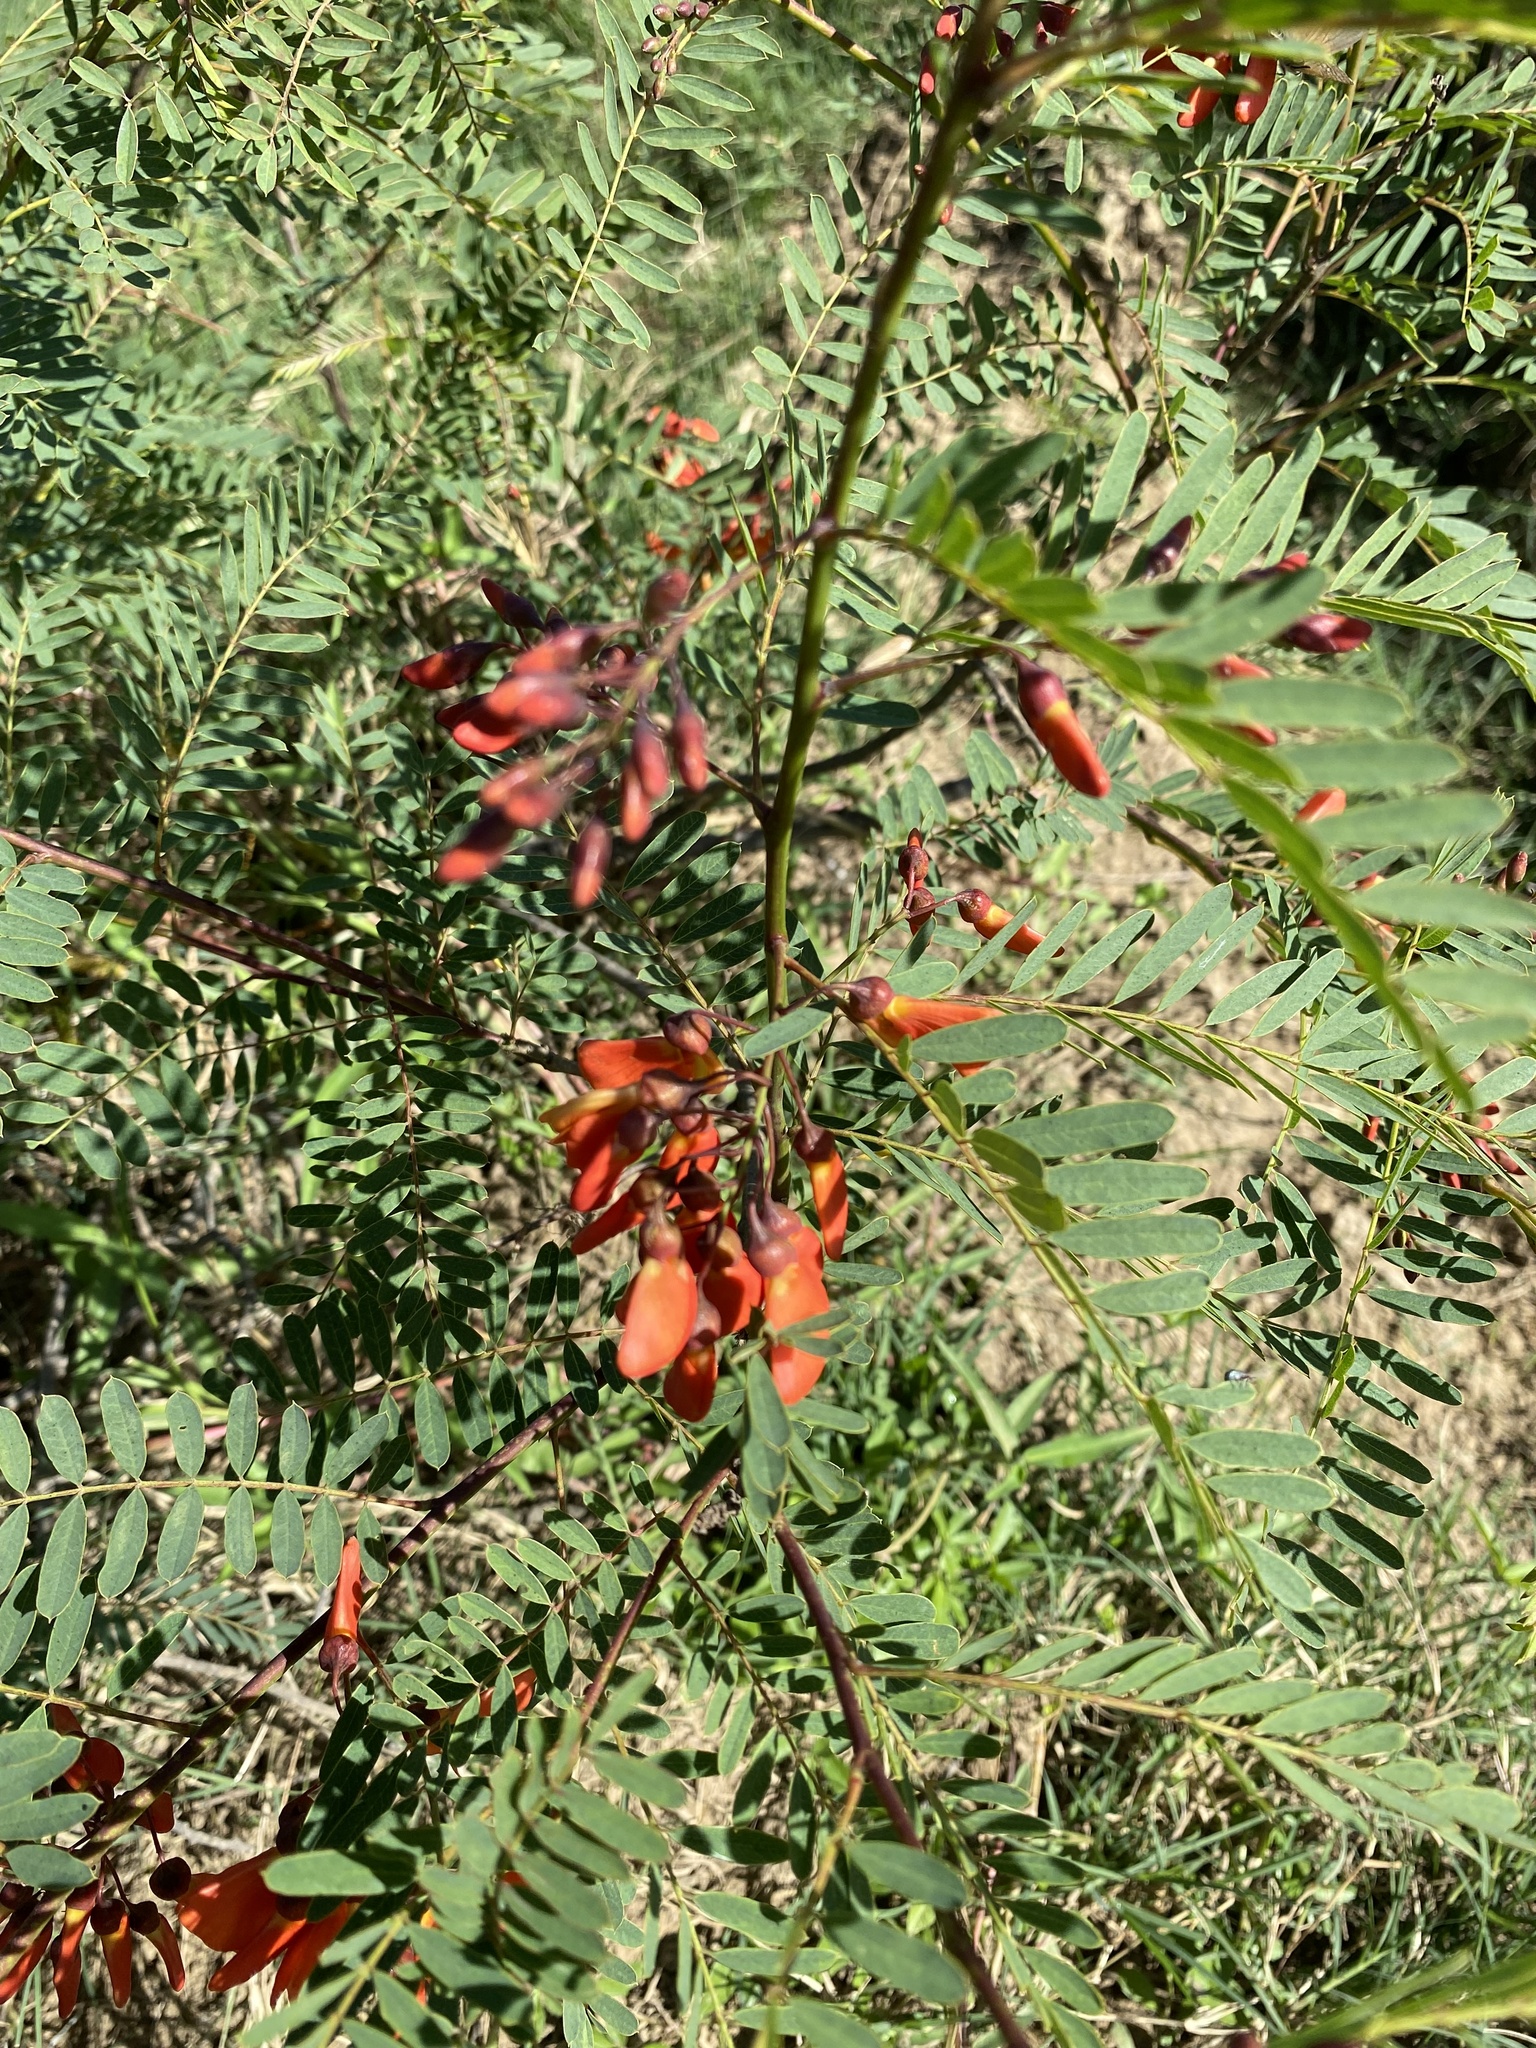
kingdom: Plantae
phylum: Tracheophyta
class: Magnoliopsida
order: Fabales
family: Fabaceae
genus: Sesbania
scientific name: Sesbania punicea
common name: Rattlebox
